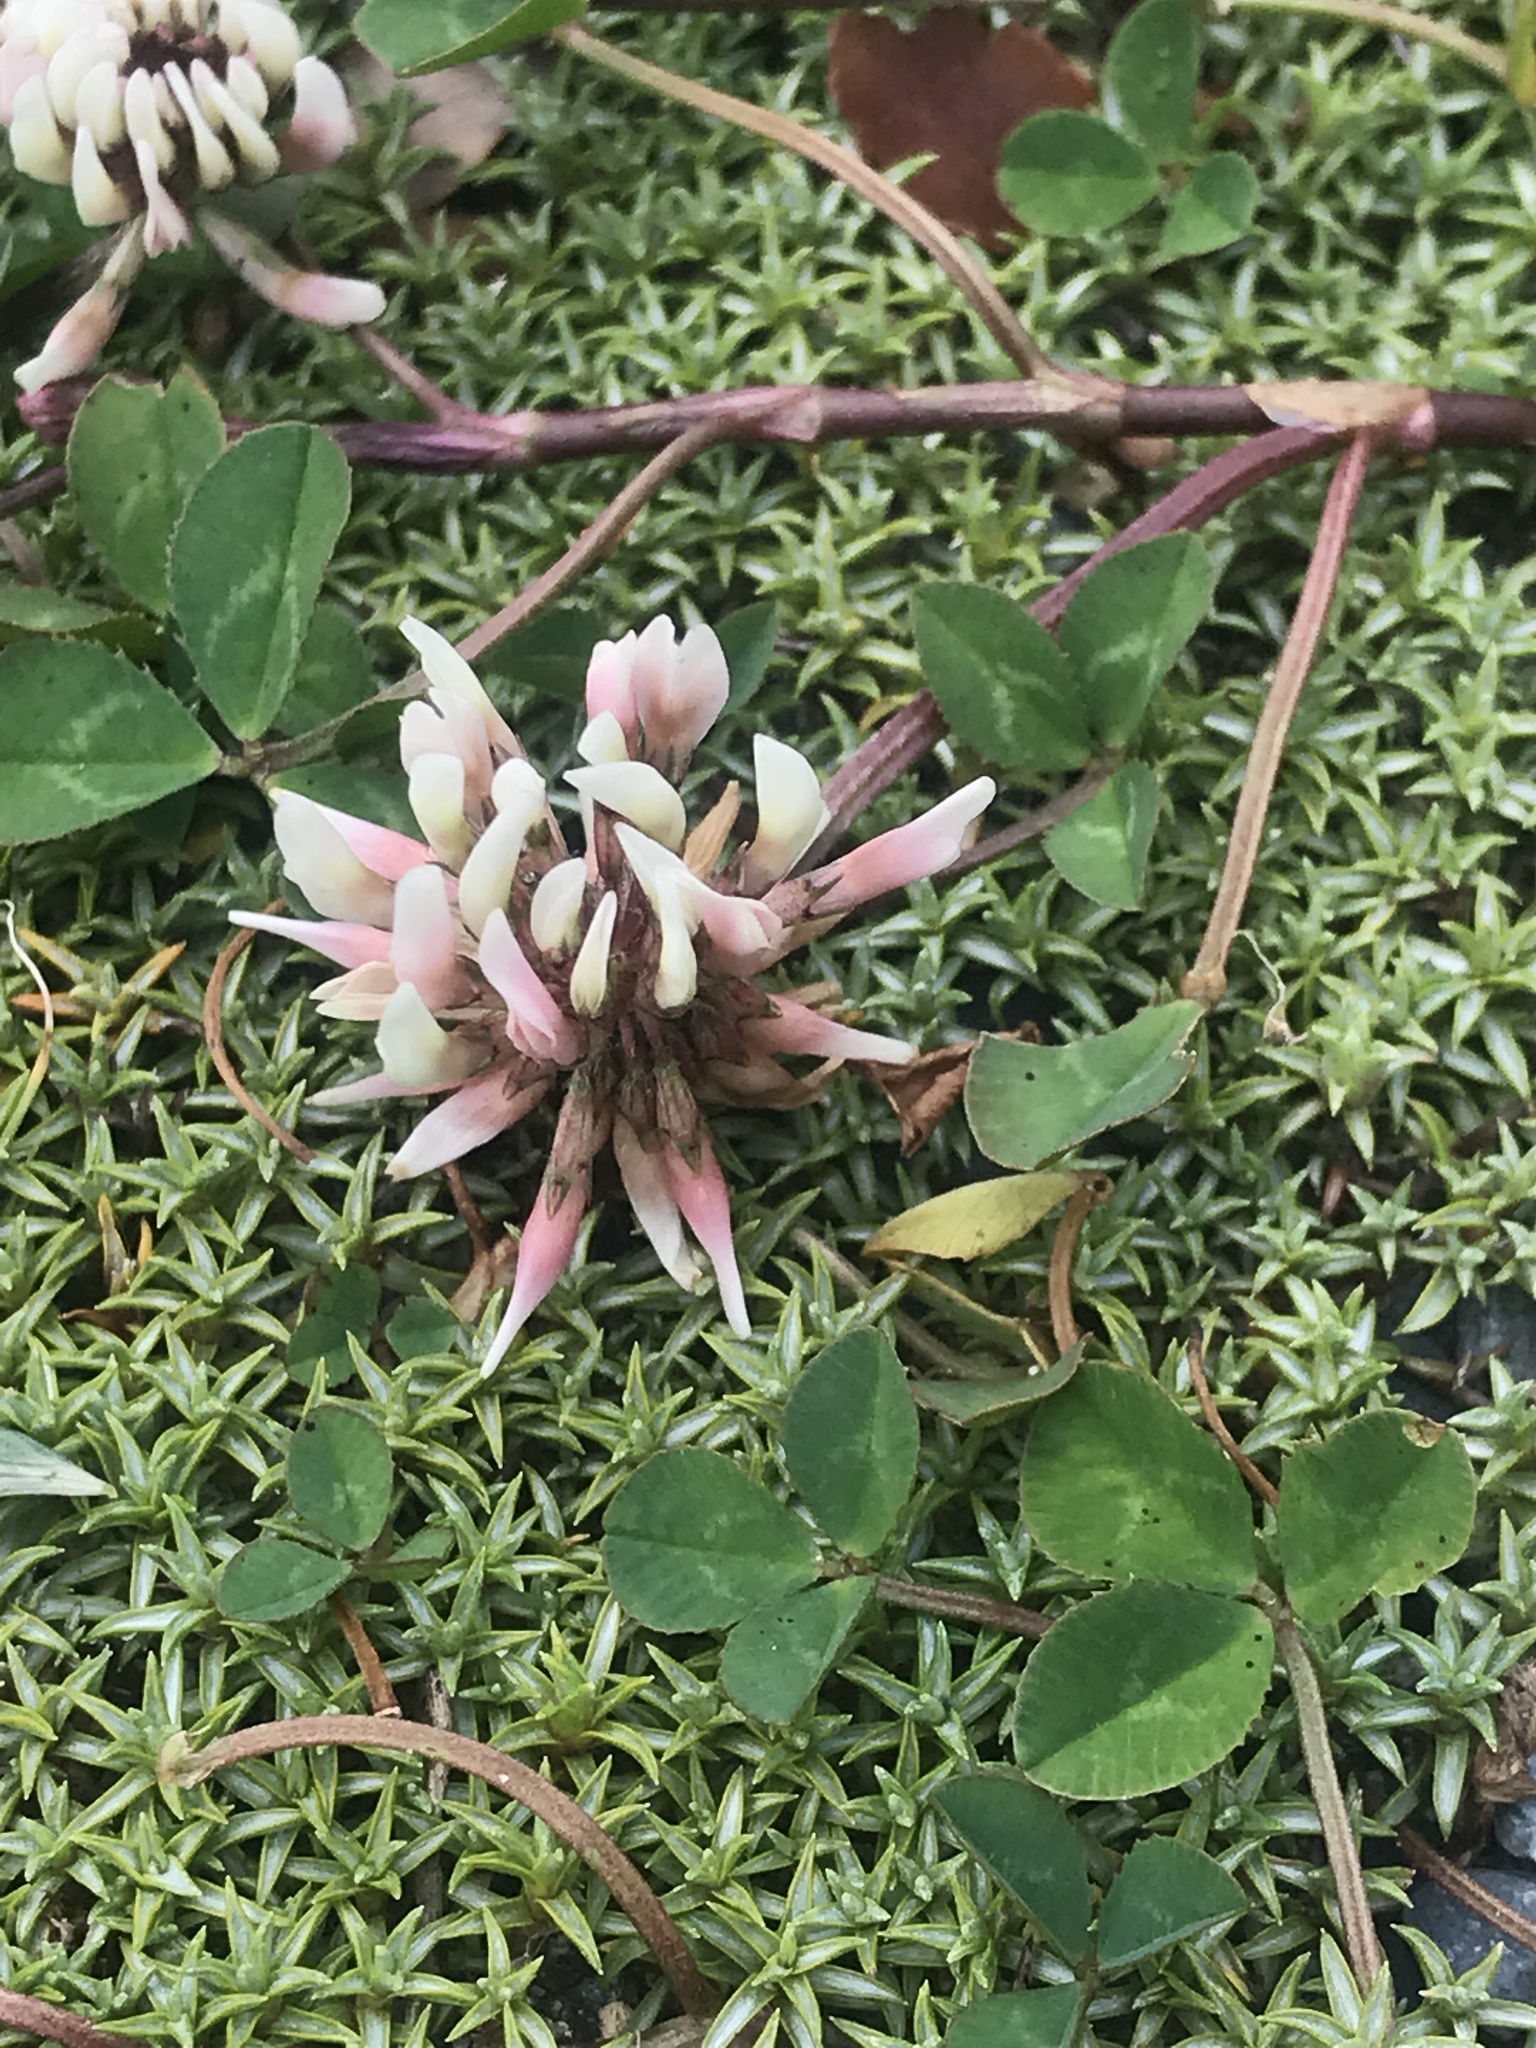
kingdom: Plantae
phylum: Tracheophyta
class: Magnoliopsida
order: Fabales
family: Fabaceae
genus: Trifolium
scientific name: Trifolium repens
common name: White clover
